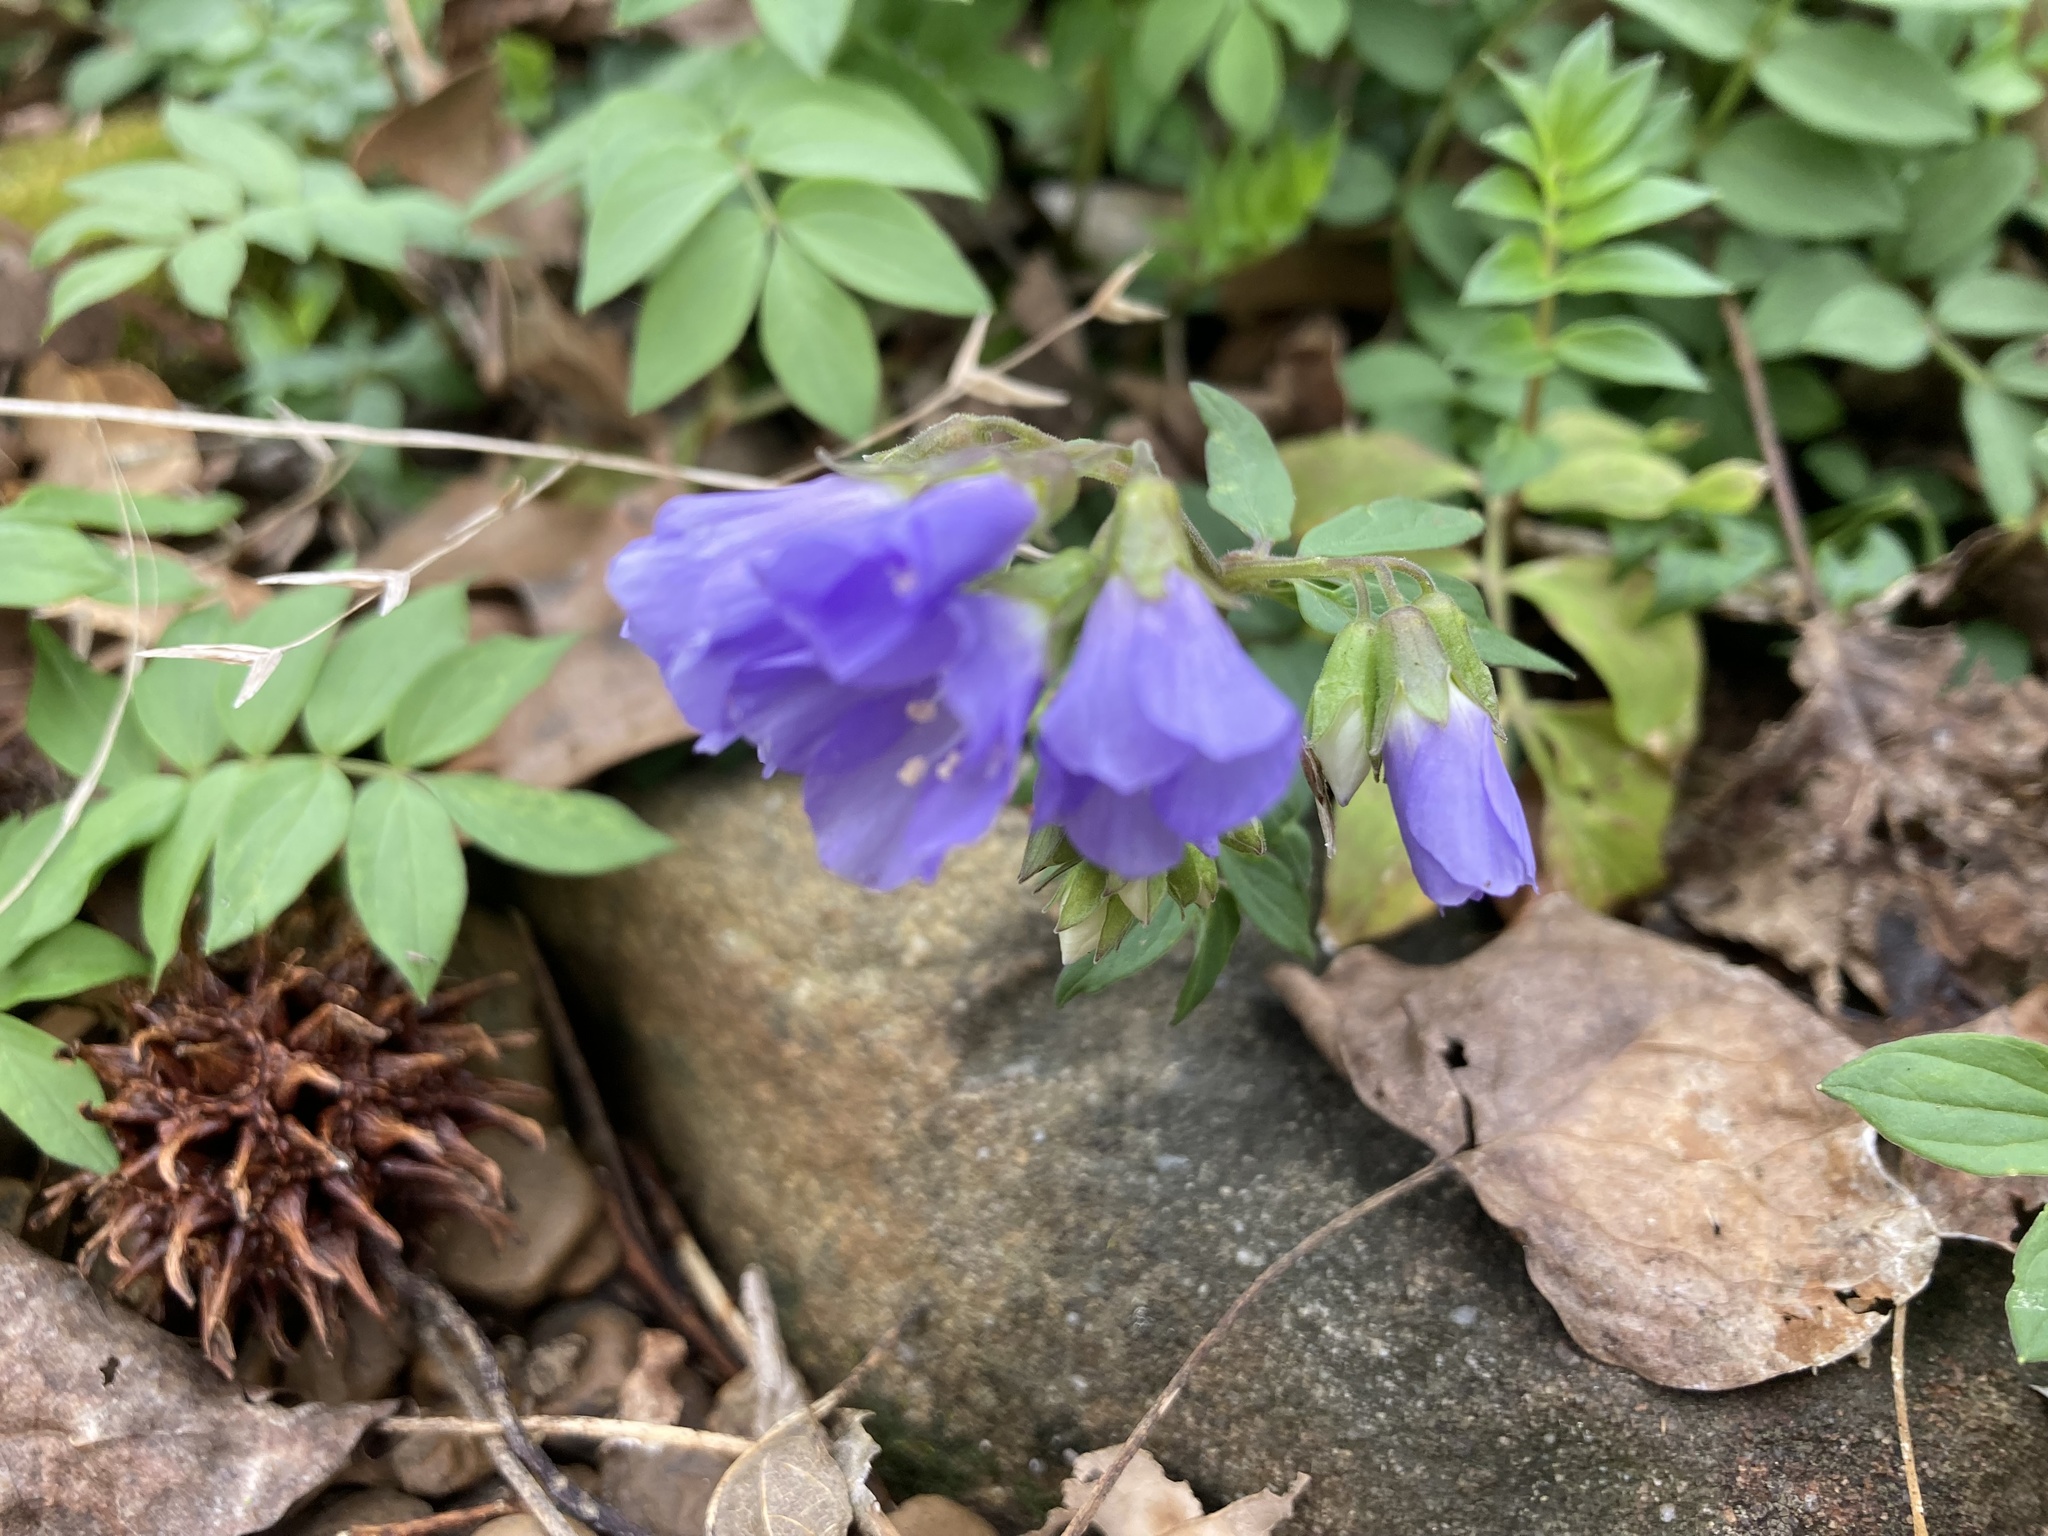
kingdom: Plantae
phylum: Tracheophyta
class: Magnoliopsida
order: Ericales
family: Polemoniaceae
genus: Polemonium
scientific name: Polemonium reptans
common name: Creeping jacob's-ladder
